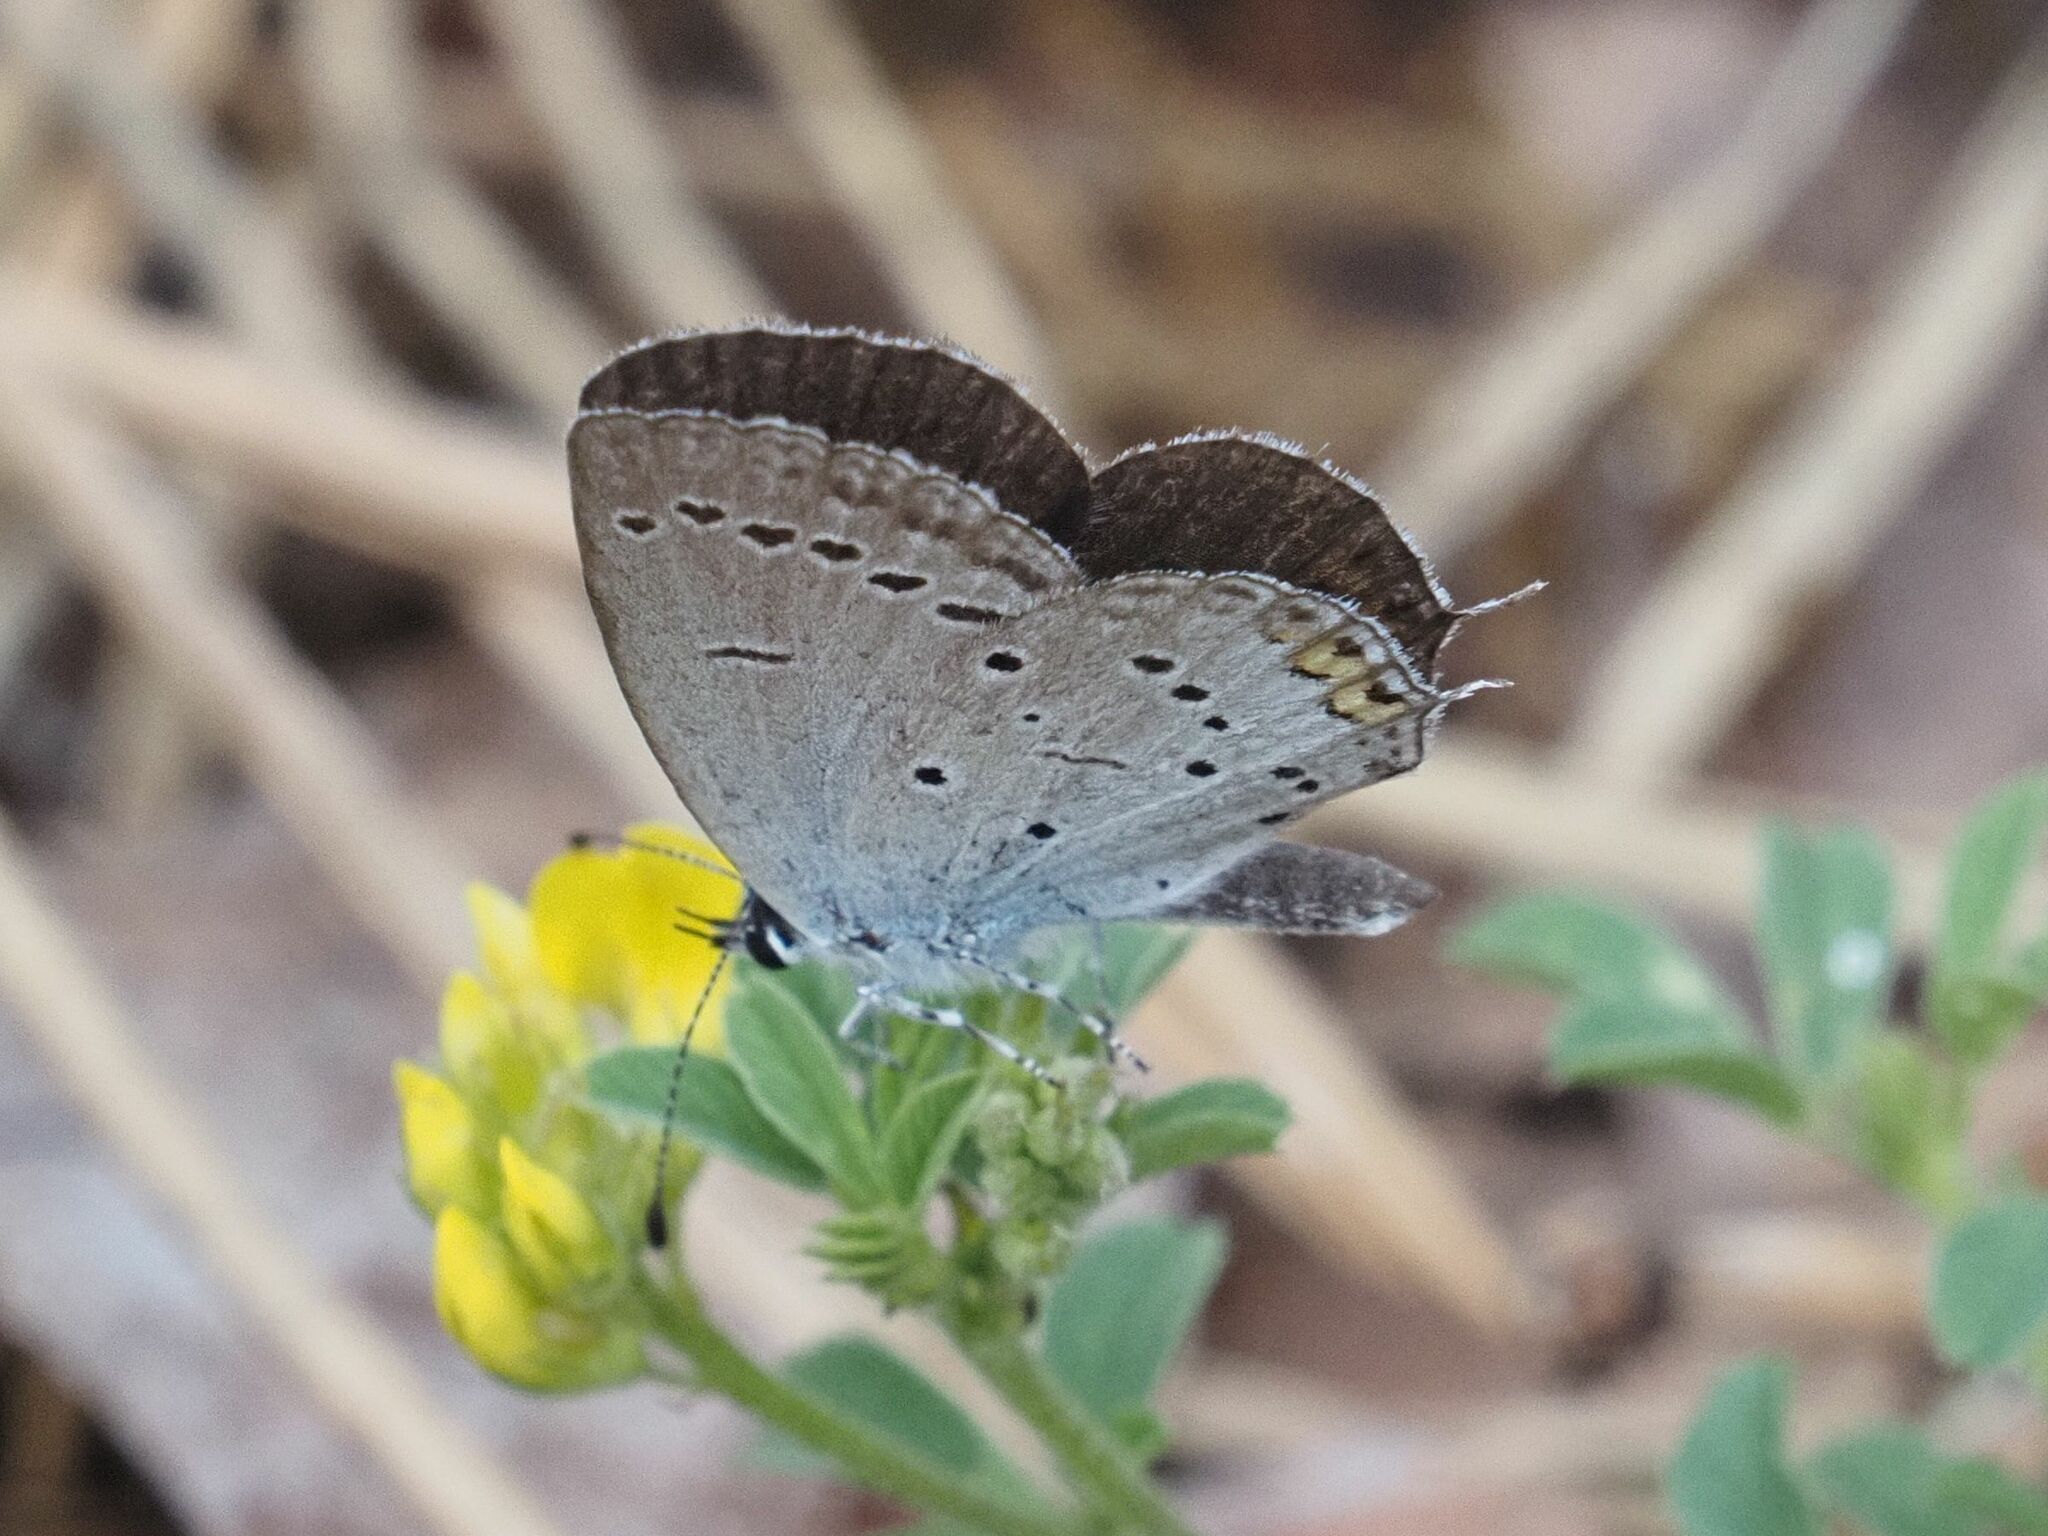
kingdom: Animalia
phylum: Arthropoda
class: Insecta
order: Lepidoptera
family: Lycaenidae
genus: Elkalyce
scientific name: Elkalyce argiades
